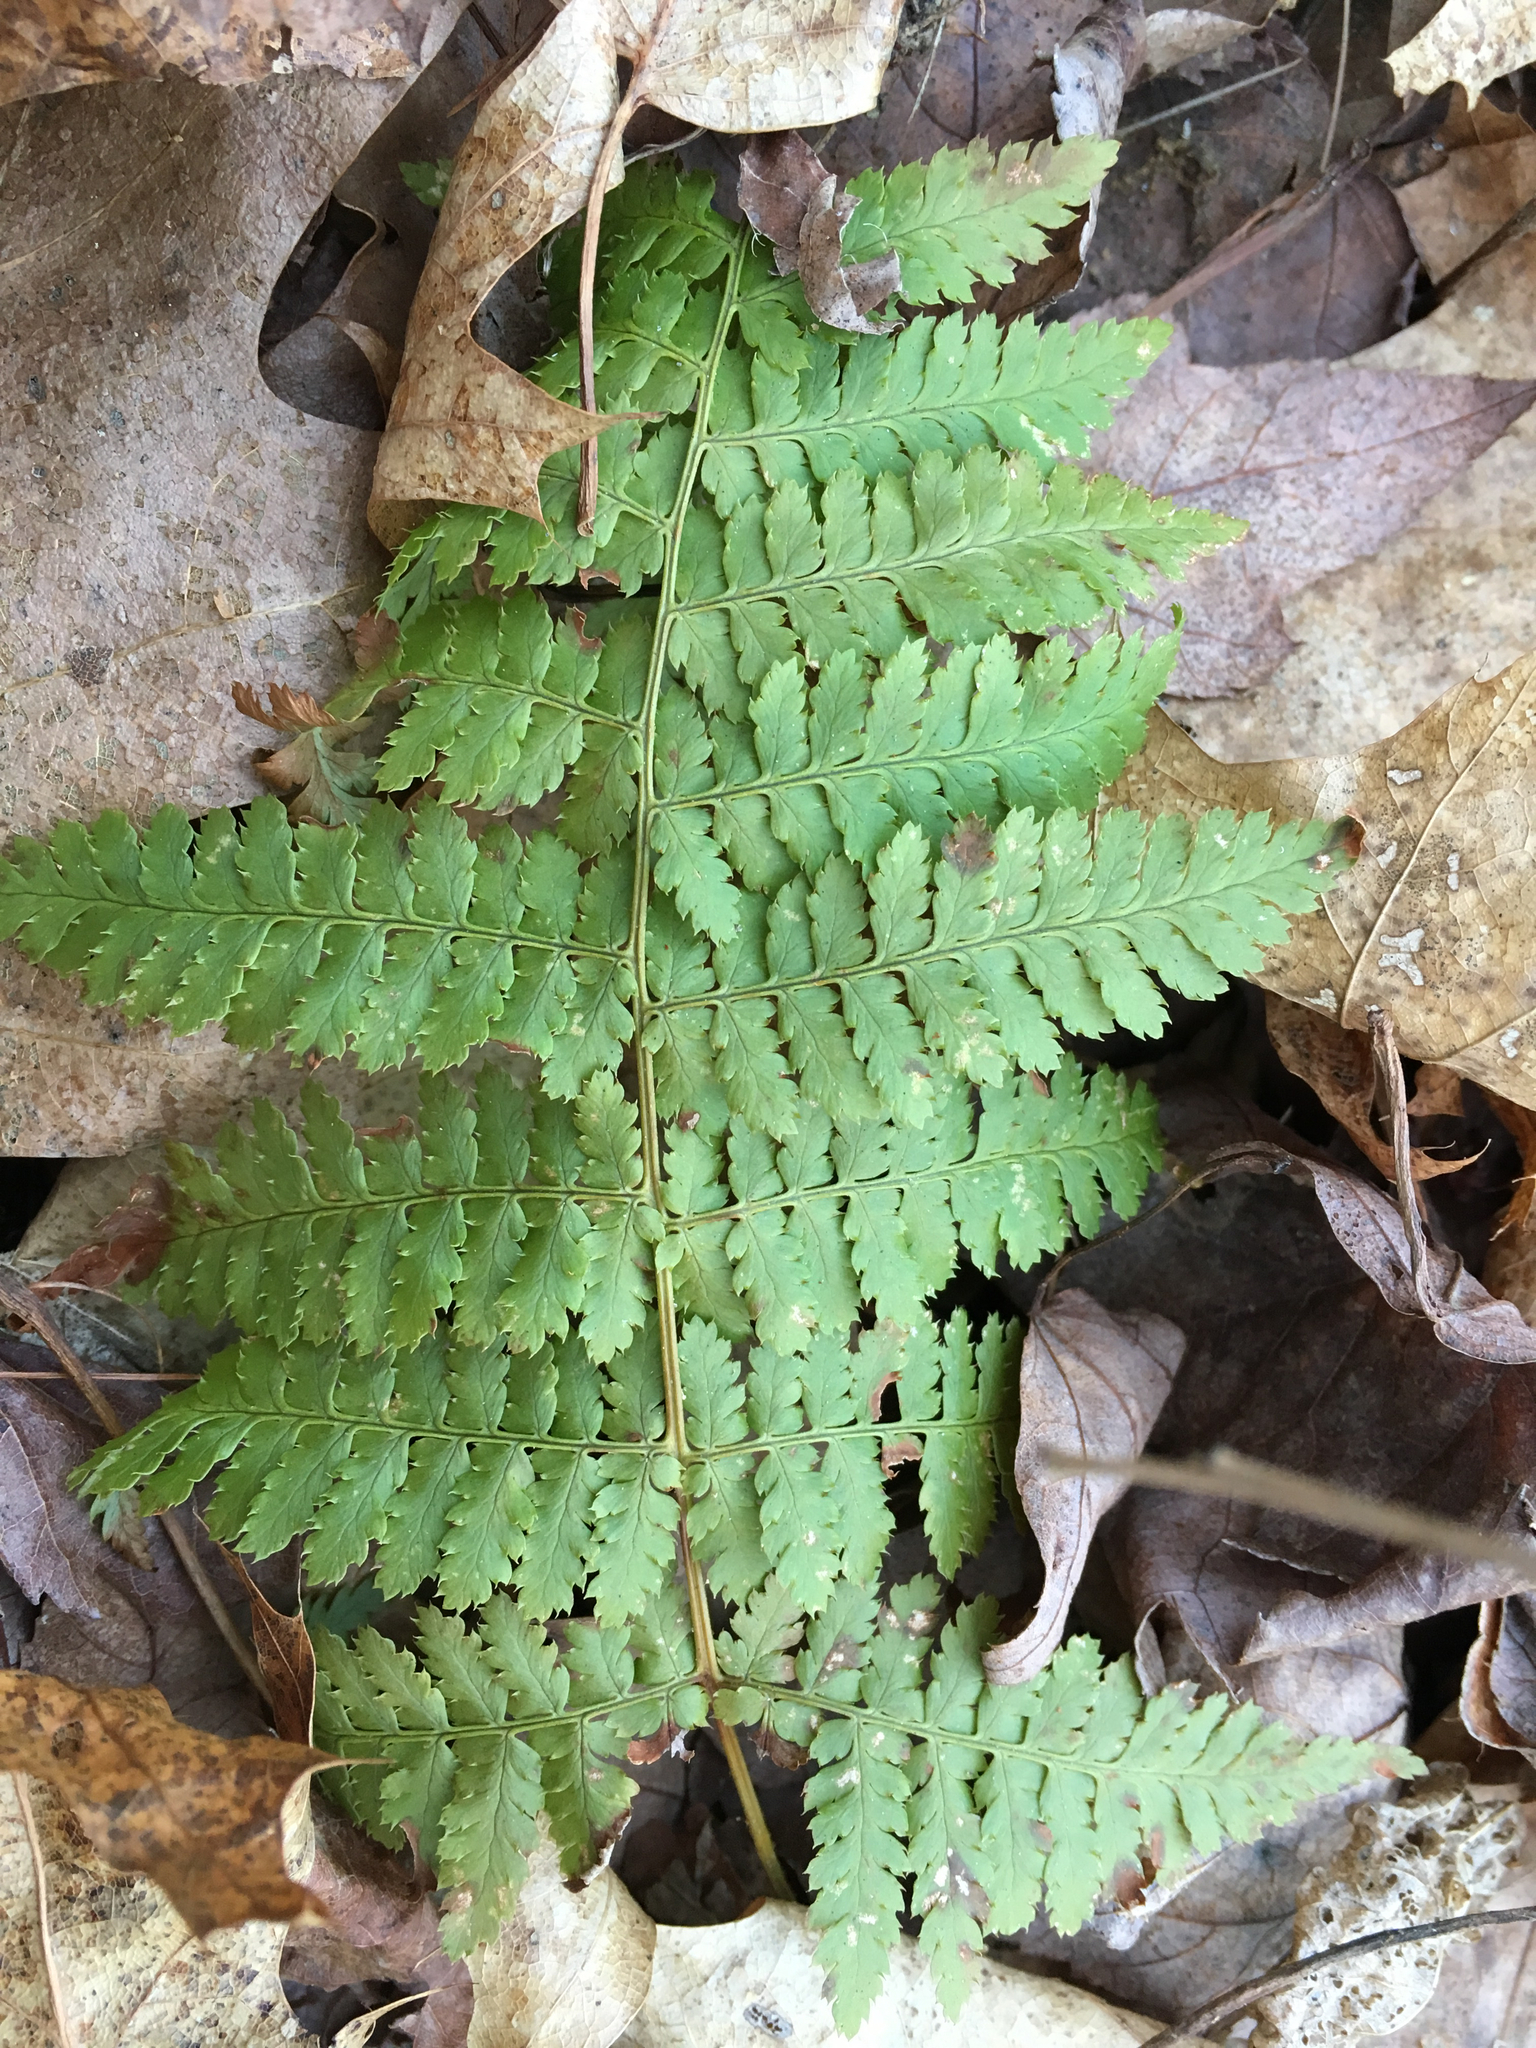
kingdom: Plantae
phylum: Tracheophyta
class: Polypodiopsida
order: Polypodiales
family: Dryopteridaceae
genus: Dryopteris
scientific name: Dryopteris carthusiana
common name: Narrow buckler-fern
